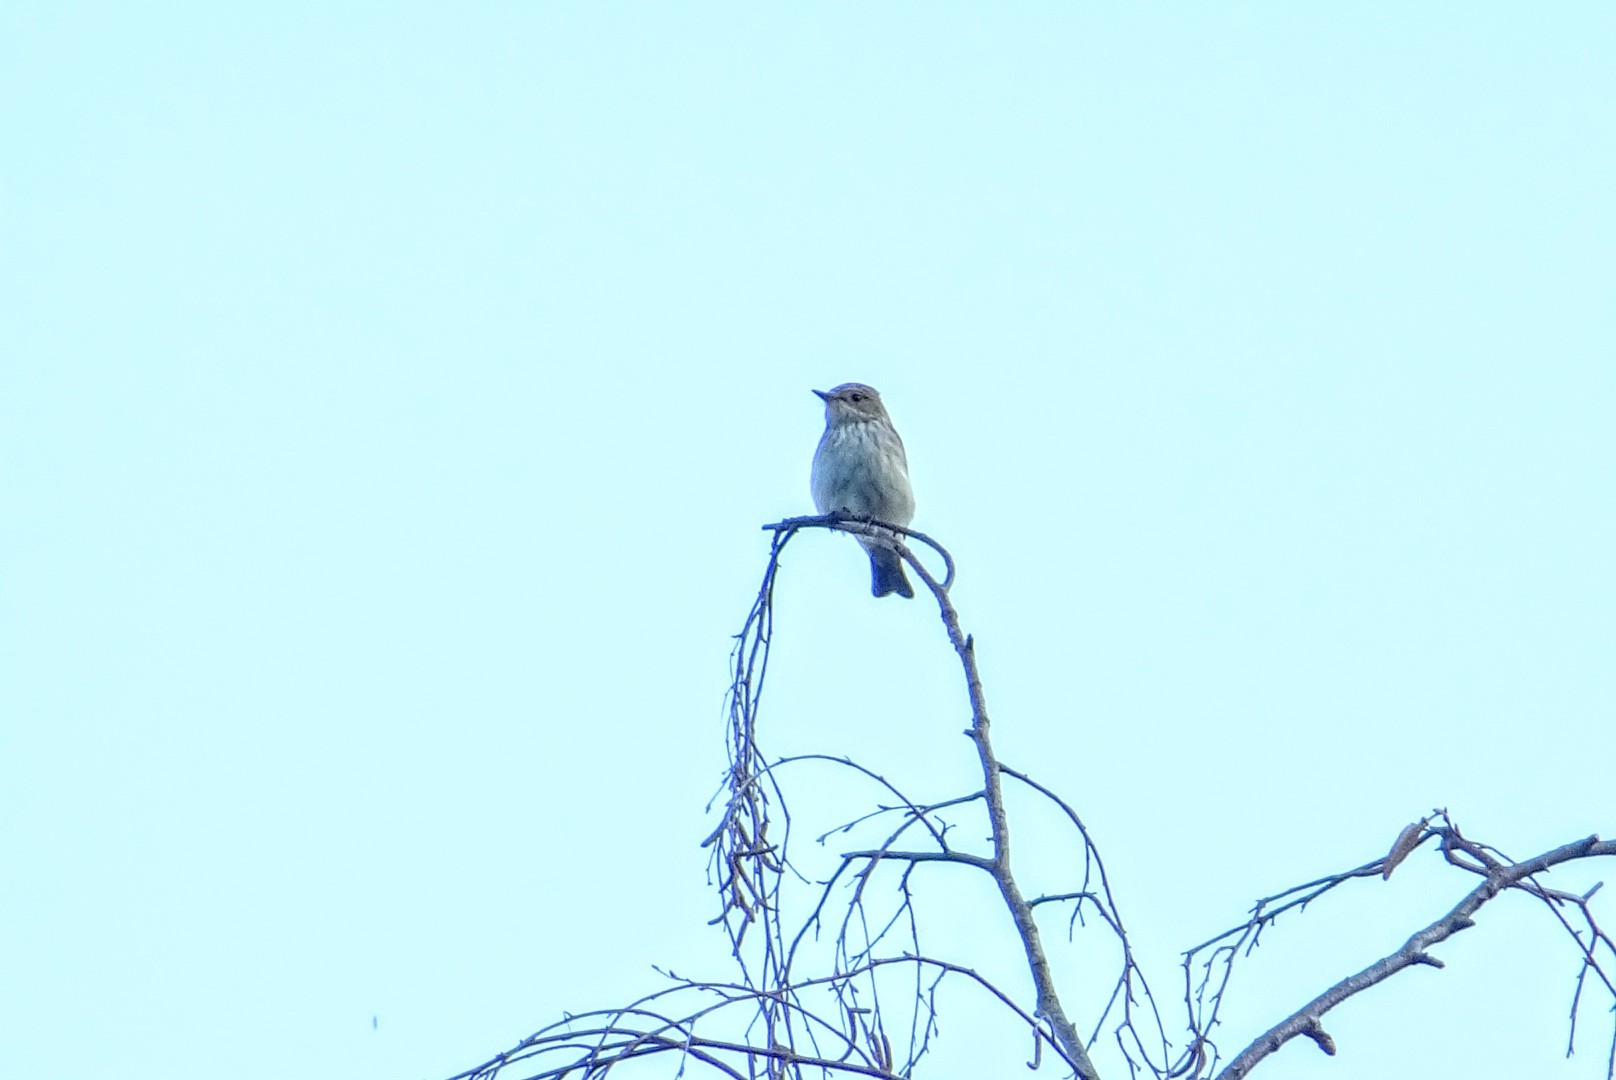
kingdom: Animalia
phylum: Chordata
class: Aves
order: Passeriformes
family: Muscicapidae
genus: Muscicapa
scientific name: Muscicapa striata
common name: Spotted flycatcher
